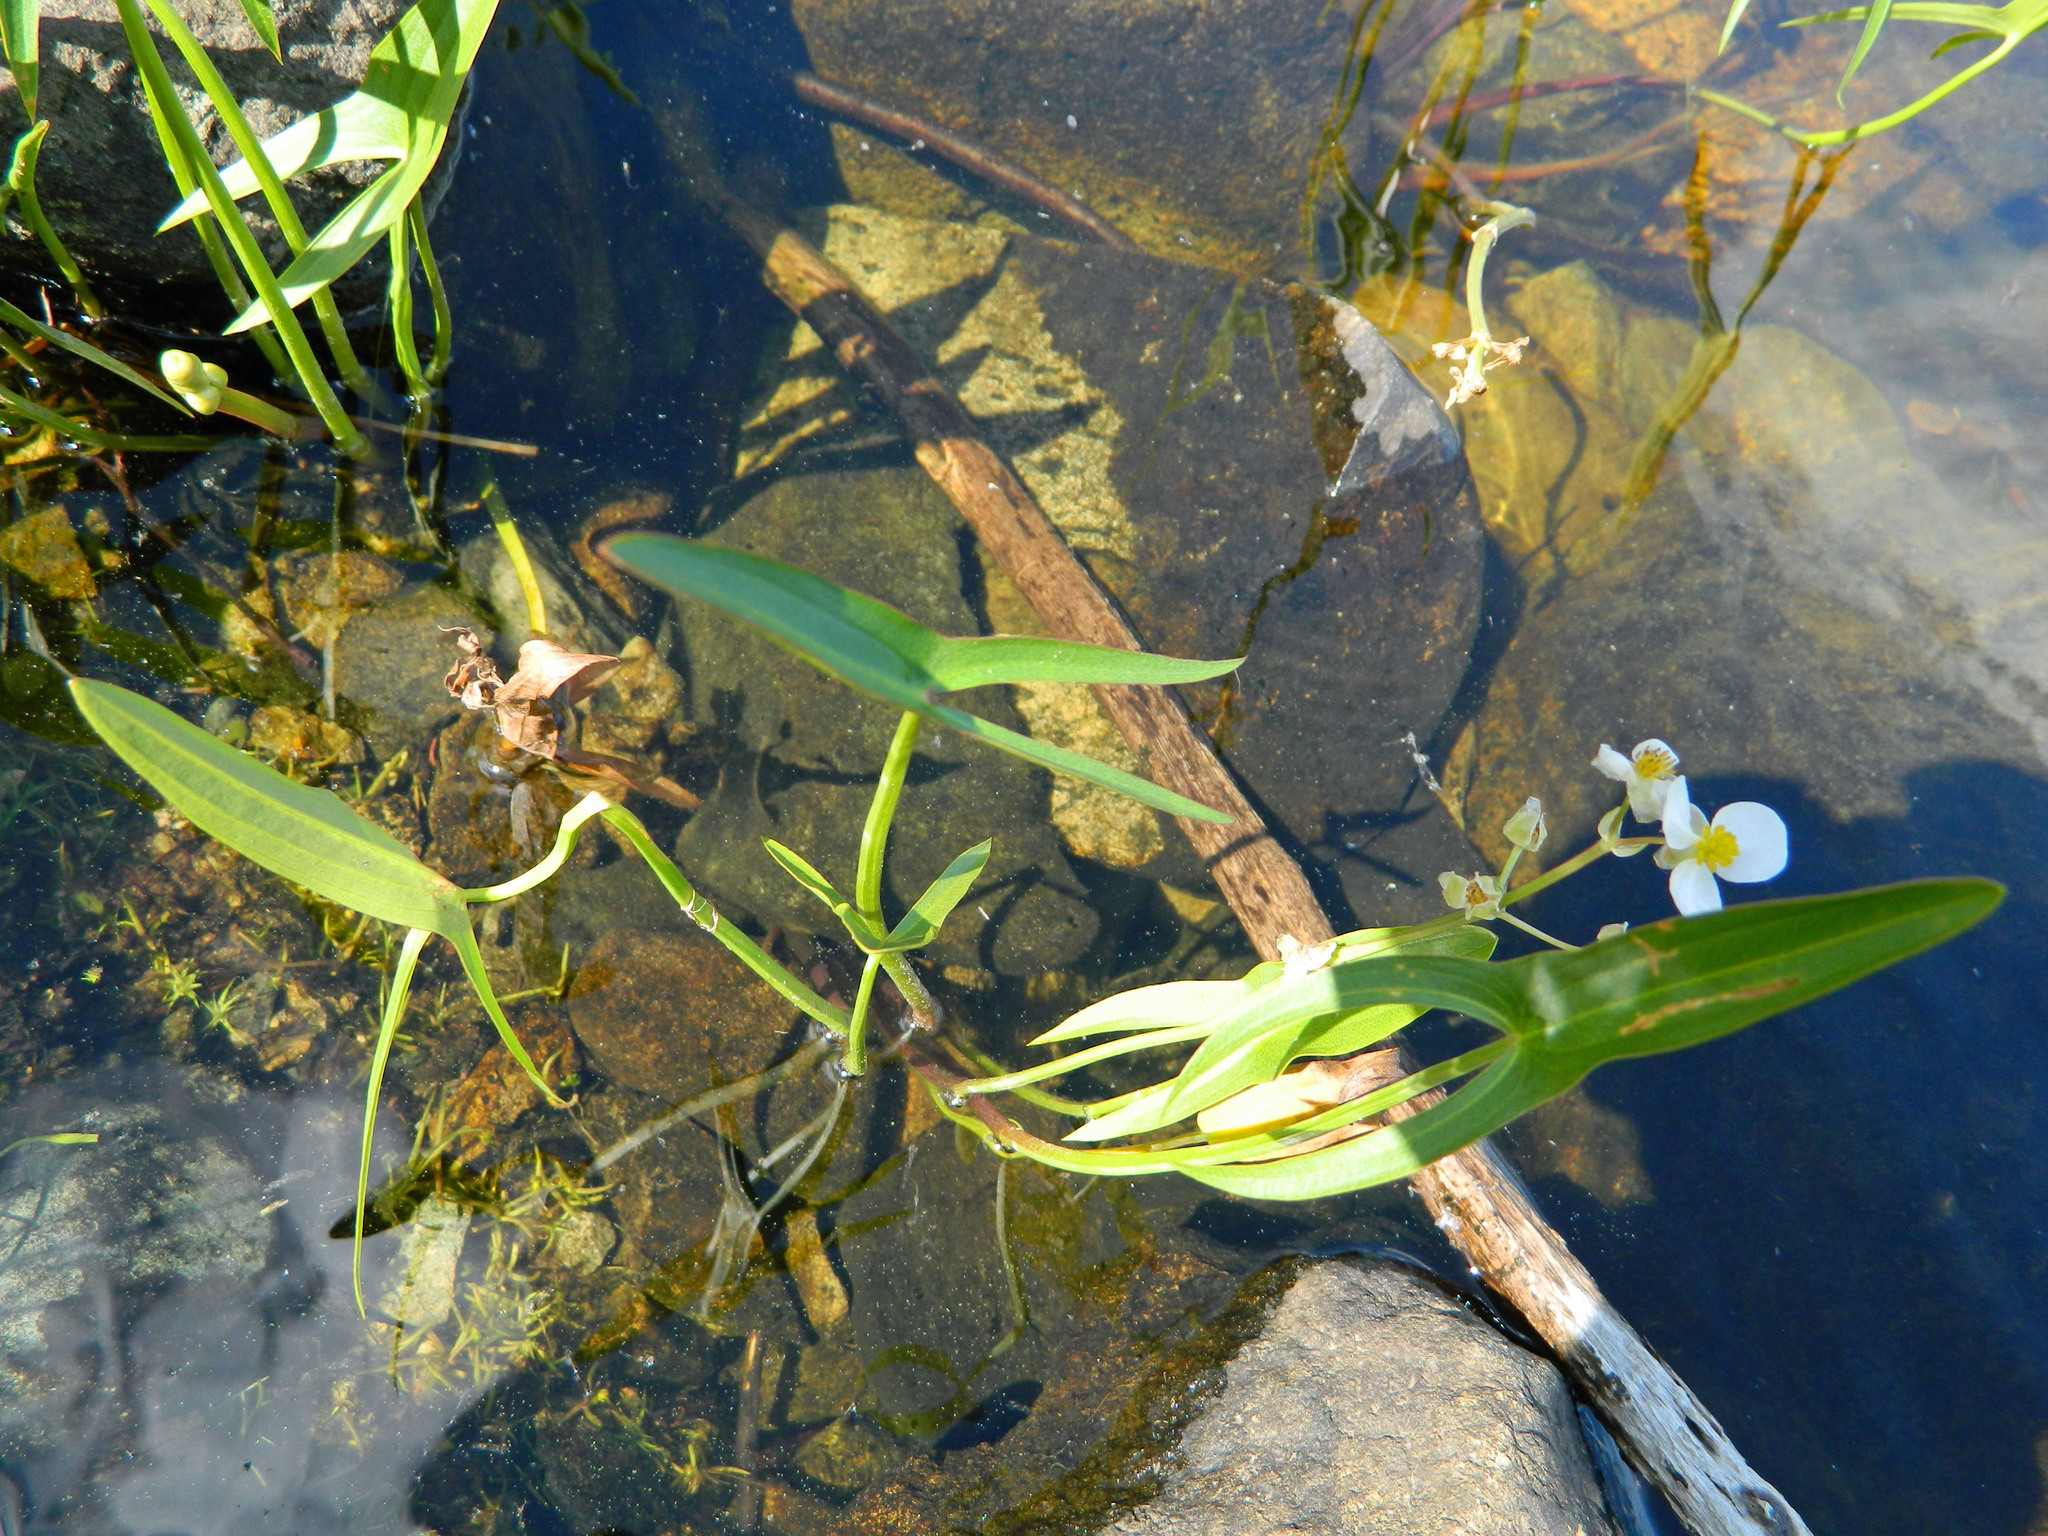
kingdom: Plantae
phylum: Tracheophyta
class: Liliopsida
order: Alismatales
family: Alismataceae
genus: Sagittaria
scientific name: Sagittaria latifolia
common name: Duck-potato
